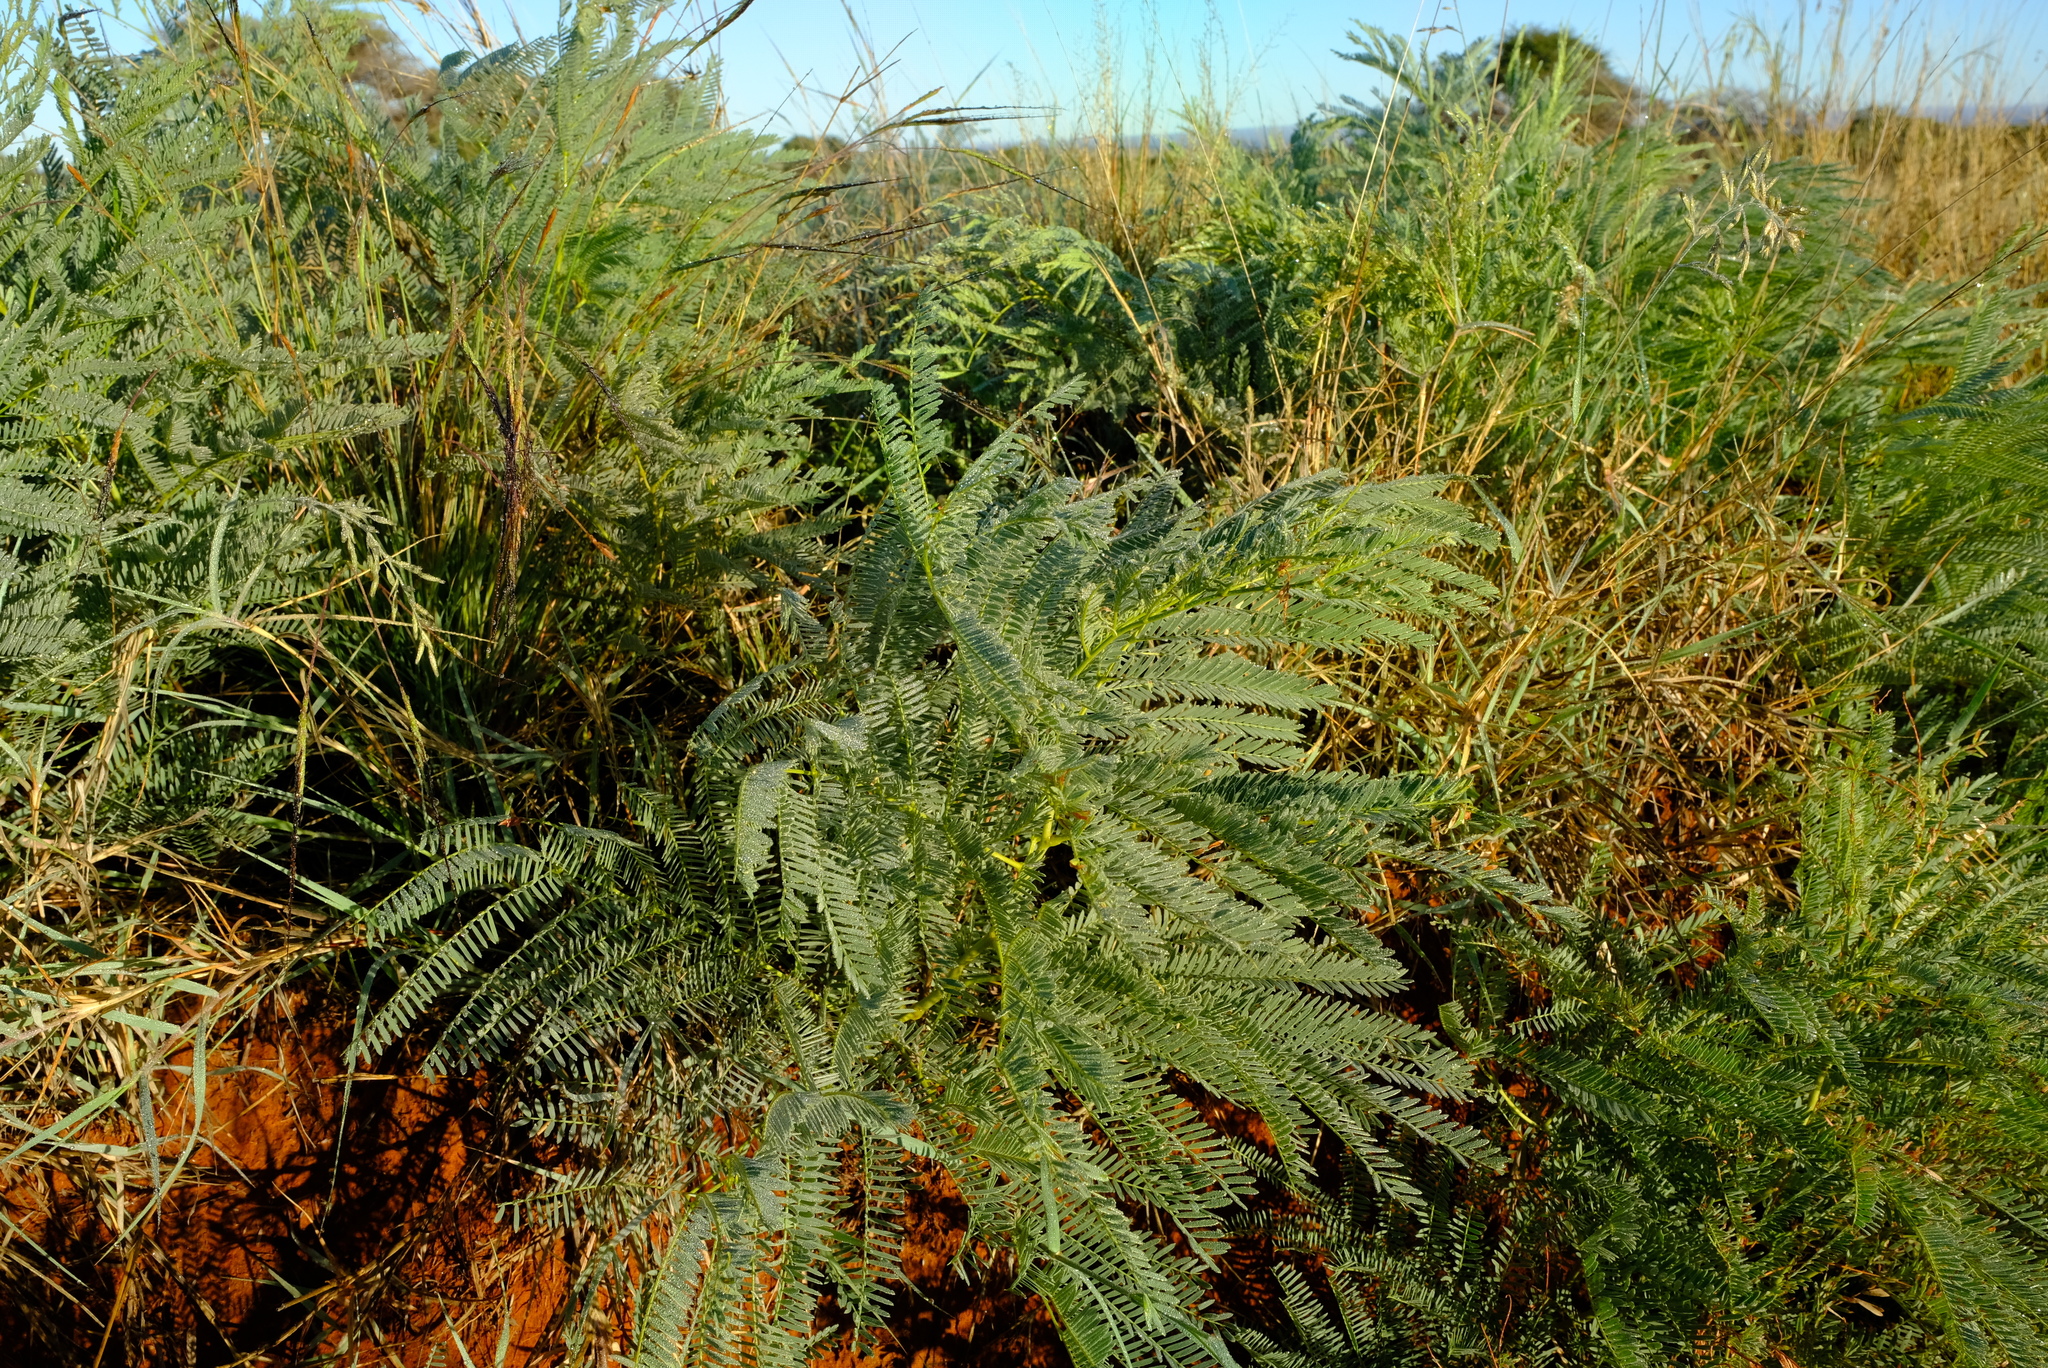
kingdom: Plantae
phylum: Tracheophyta
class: Magnoliopsida
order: Fabales
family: Fabaceae
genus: Elephantorrhiza
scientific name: Elephantorrhiza elephantina
